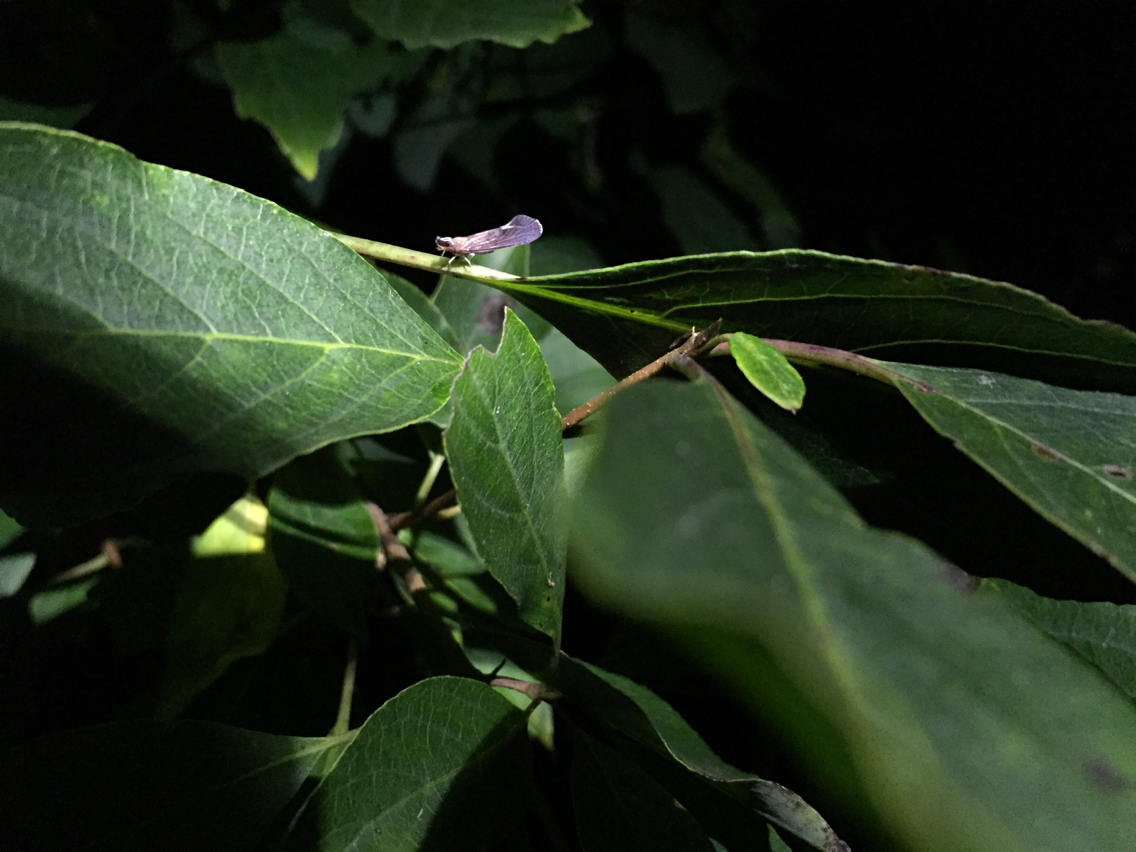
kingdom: Animalia
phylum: Arthropoda
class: Insecta
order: Hemiptera
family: Derbidae
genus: Apache
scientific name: Apache degeeri
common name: Red-fanned planthopper
